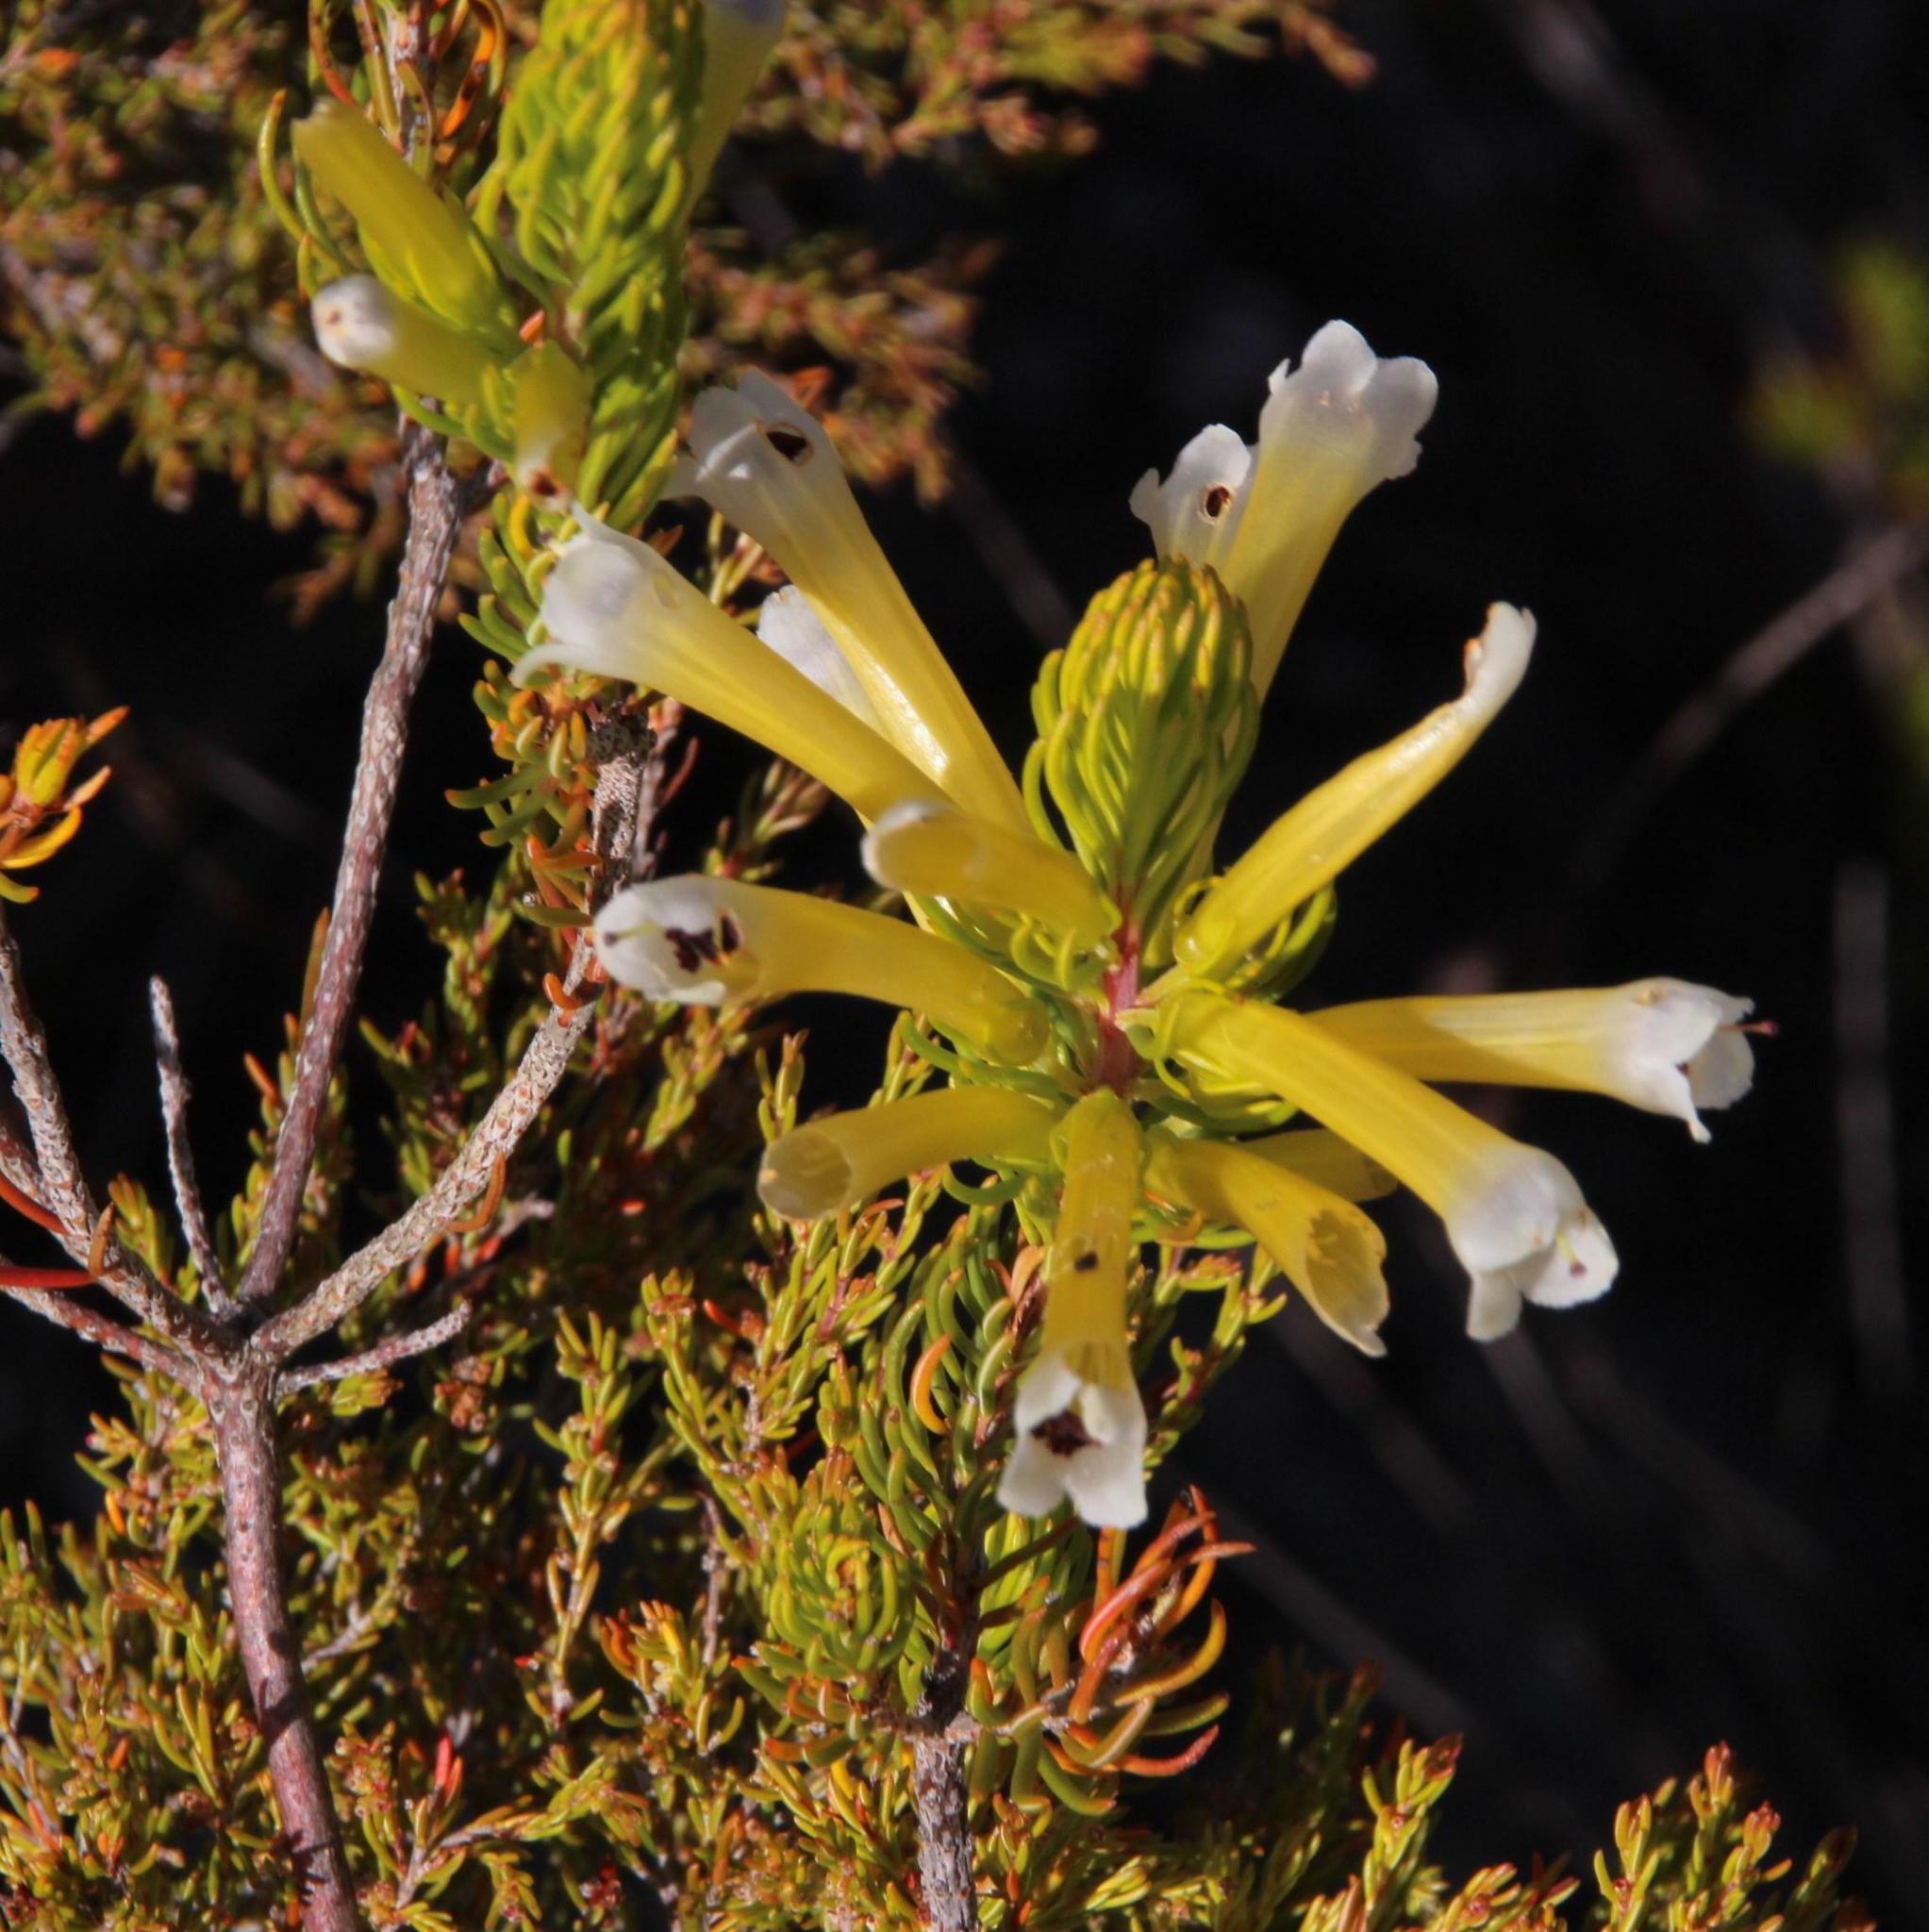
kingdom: Plantae
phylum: Tracheophyta
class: Magnoliopsida
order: Ericales
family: Ericaceae
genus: Erica
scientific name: Erica pinea
